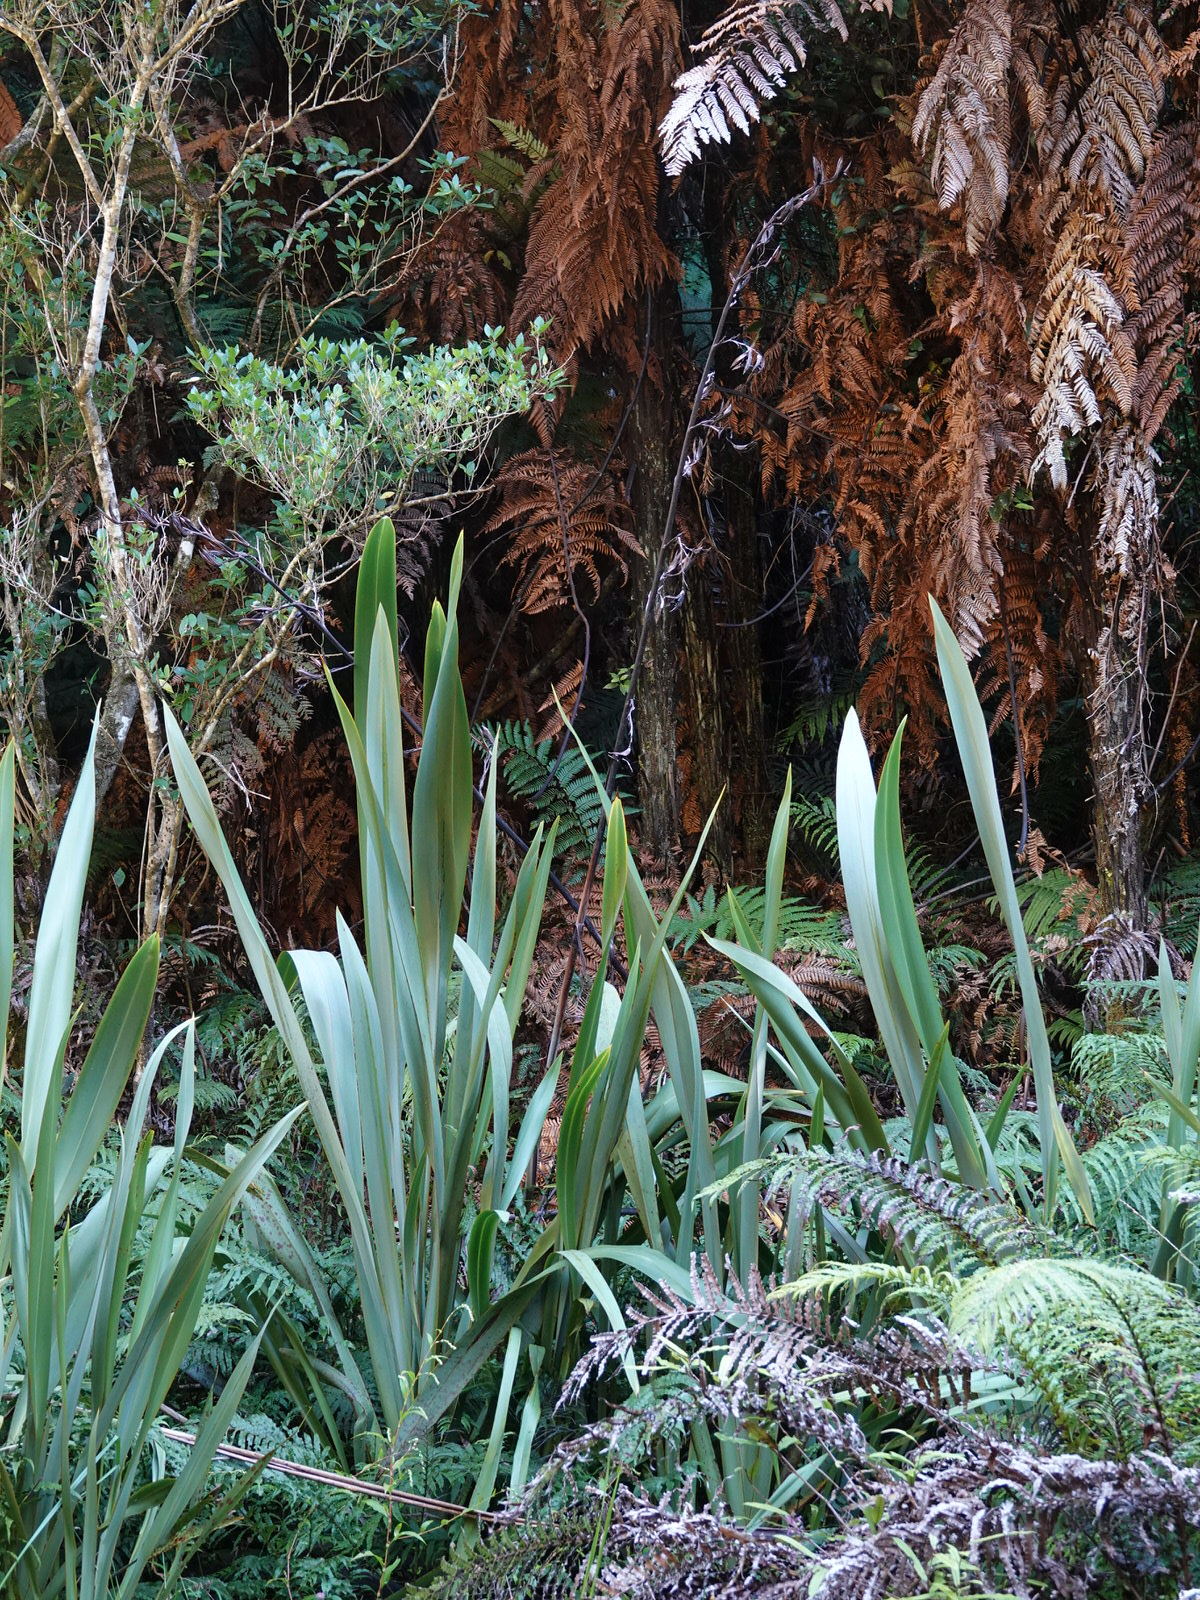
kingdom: Plantae
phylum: Tracheophyta
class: Liliopsida
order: Asparagales
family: Asphodelaceae
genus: Phormium
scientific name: Phormium tenax
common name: New zealand flax
